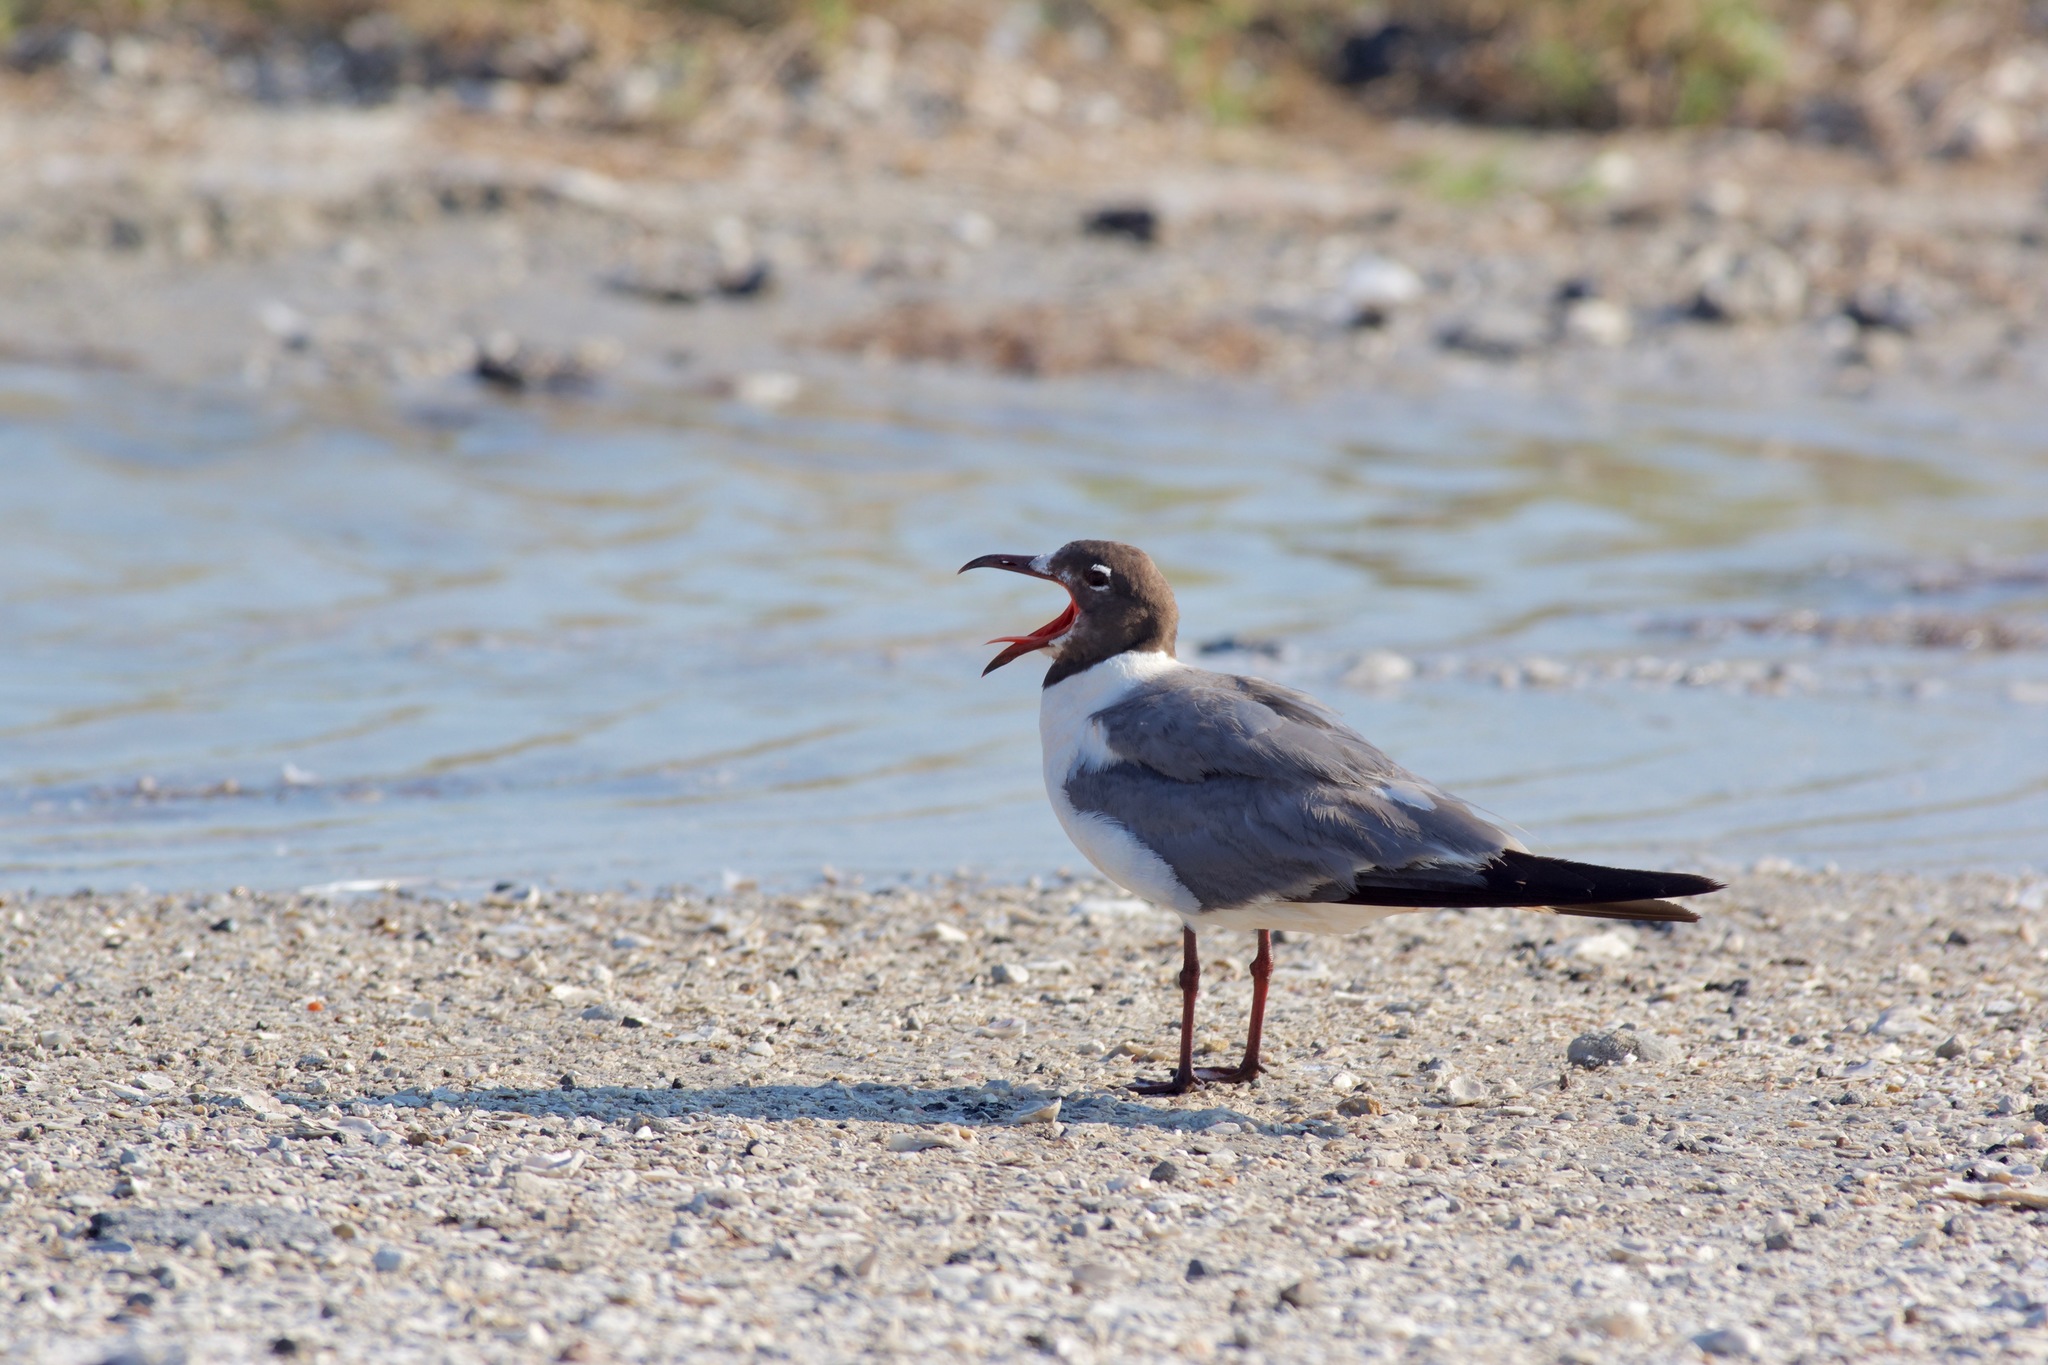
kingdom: Animalia
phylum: Chordata
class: Aves
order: Charadriiformes
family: Laridae
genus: Leucophaeus
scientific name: Leucophaeus atricilla
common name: Laughing gull
